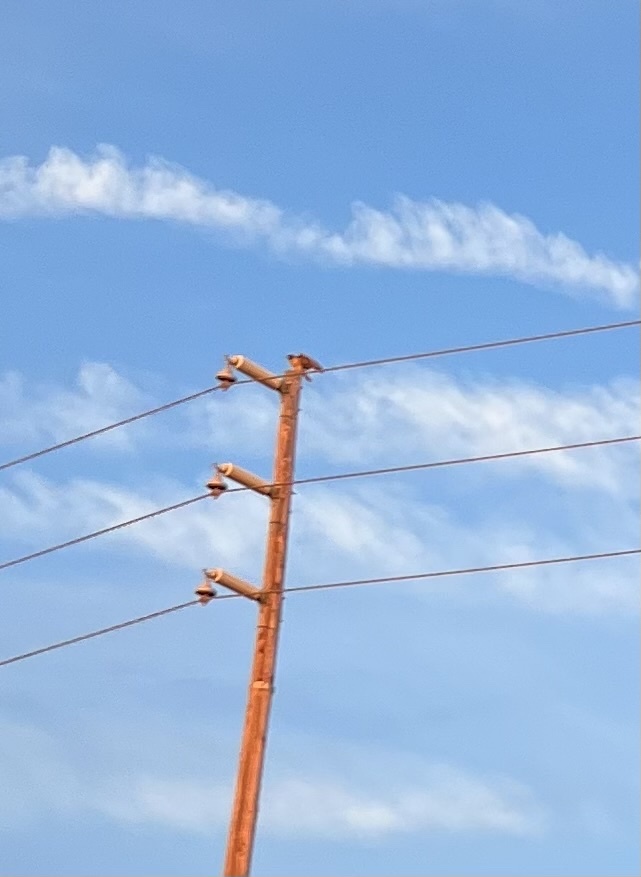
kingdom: Animalia
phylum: Chordata
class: Aves
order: Accipitriformes
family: Accipitridae
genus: Buteo
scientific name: Buteo jamaicensis
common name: Red-tailed hawk
